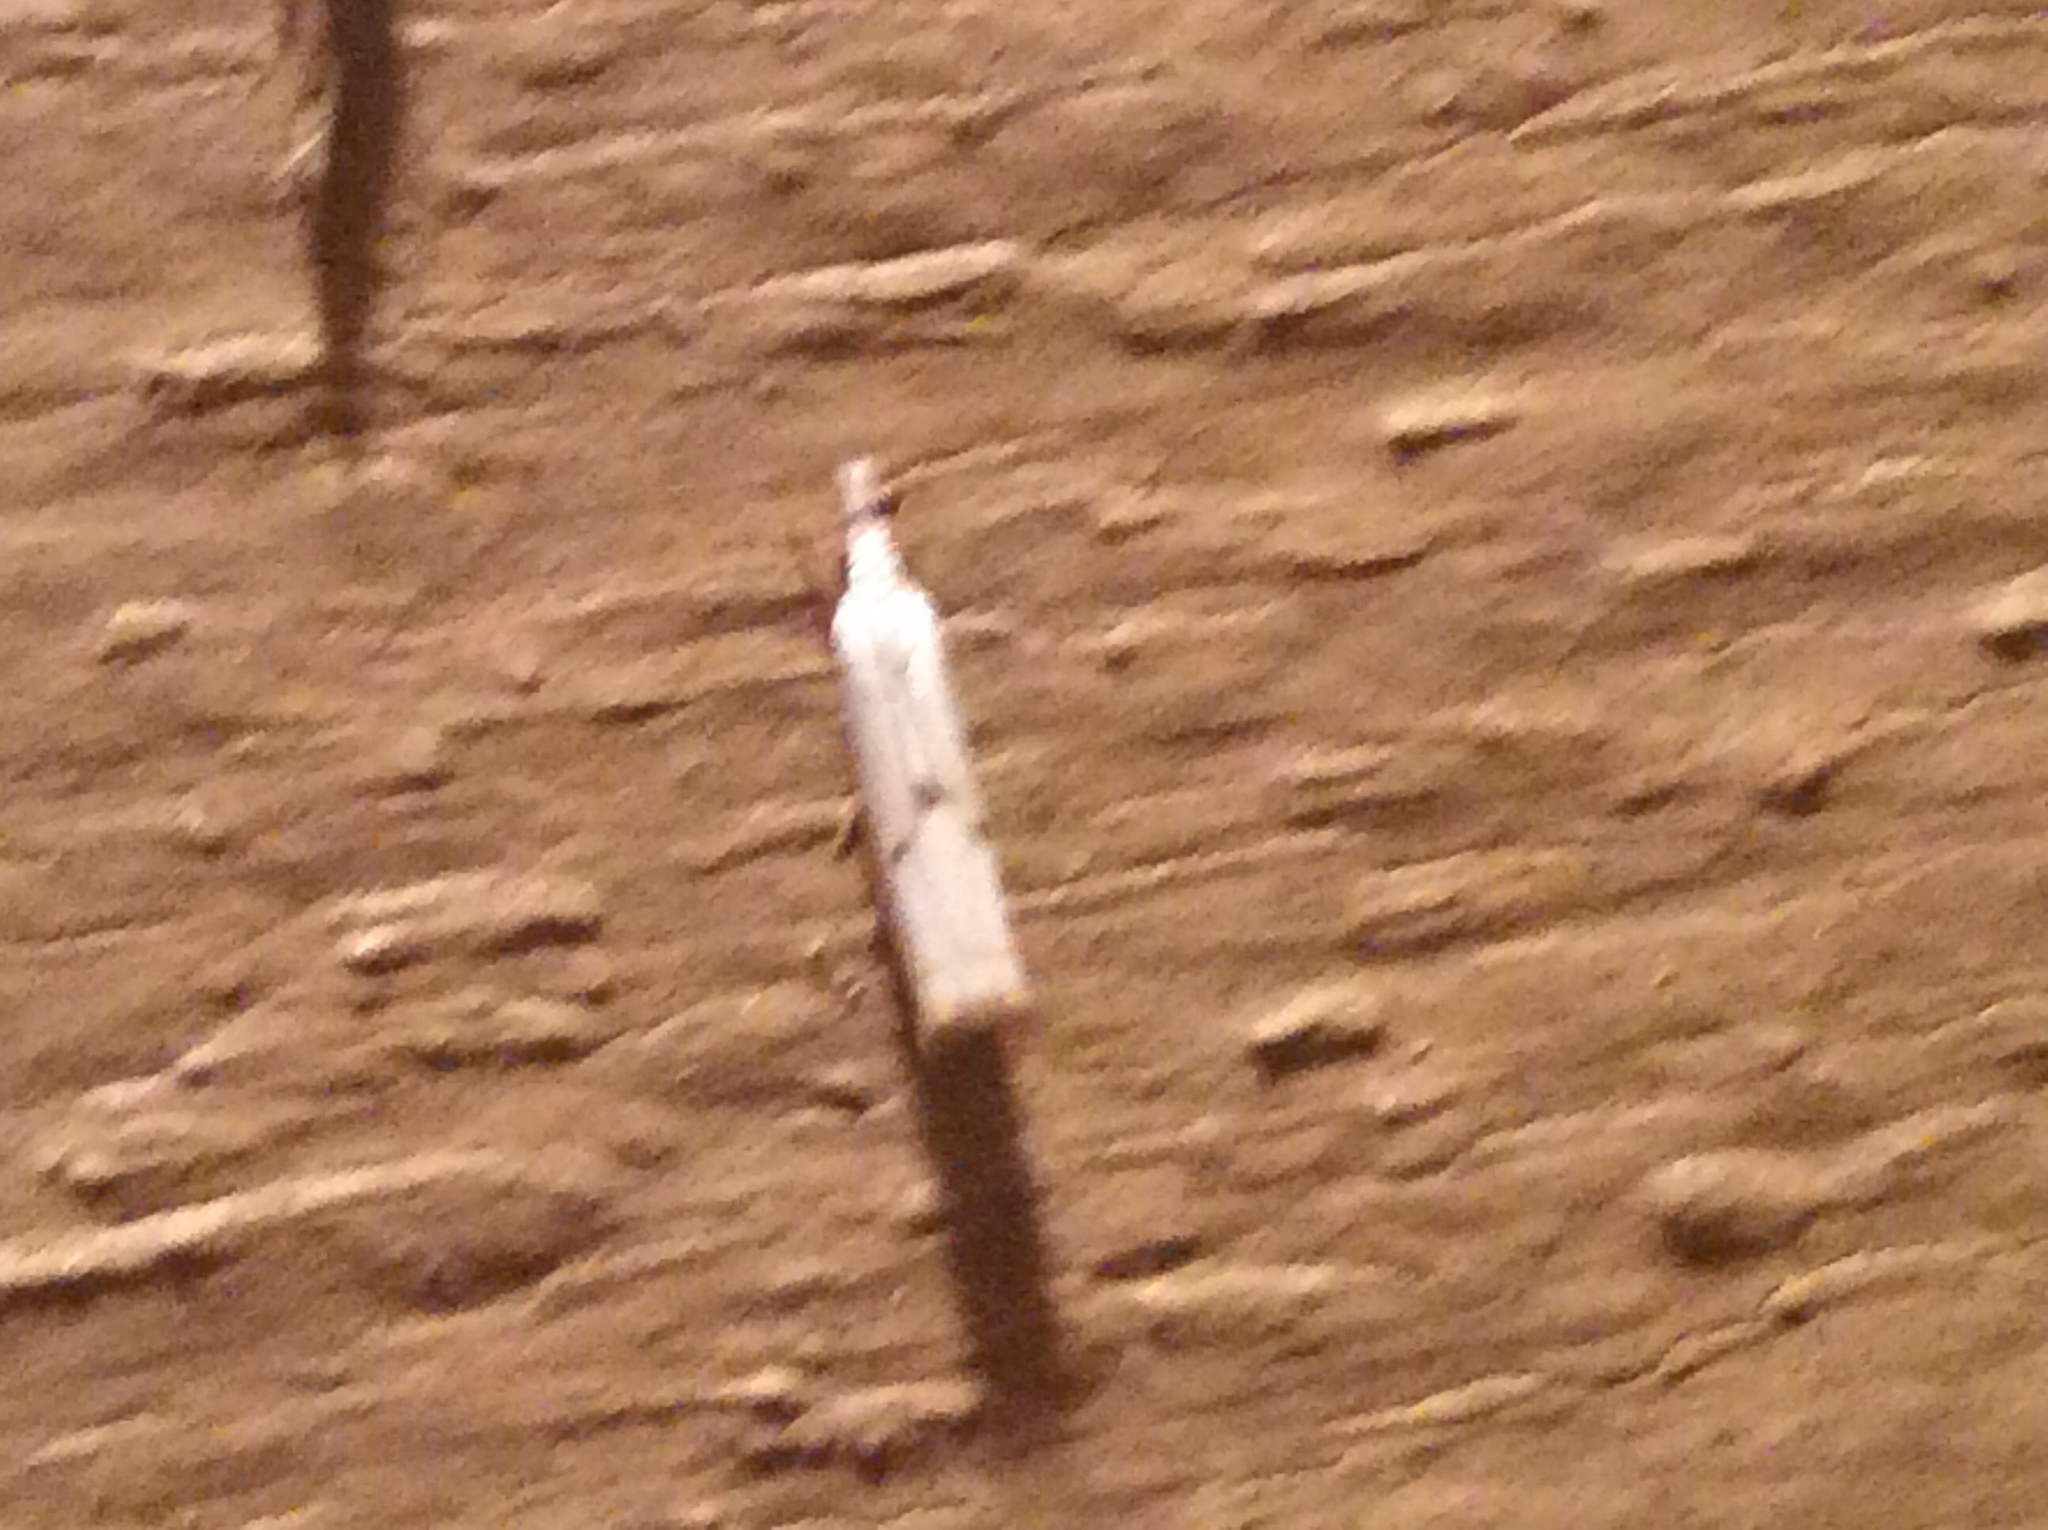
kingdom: Animalia
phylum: Arthropoda
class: Insecta
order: Lepidoptera
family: Crambidae
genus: Microcrambus
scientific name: Microcrambus biguttellus
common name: Gold-stripe grass-veneer moth
